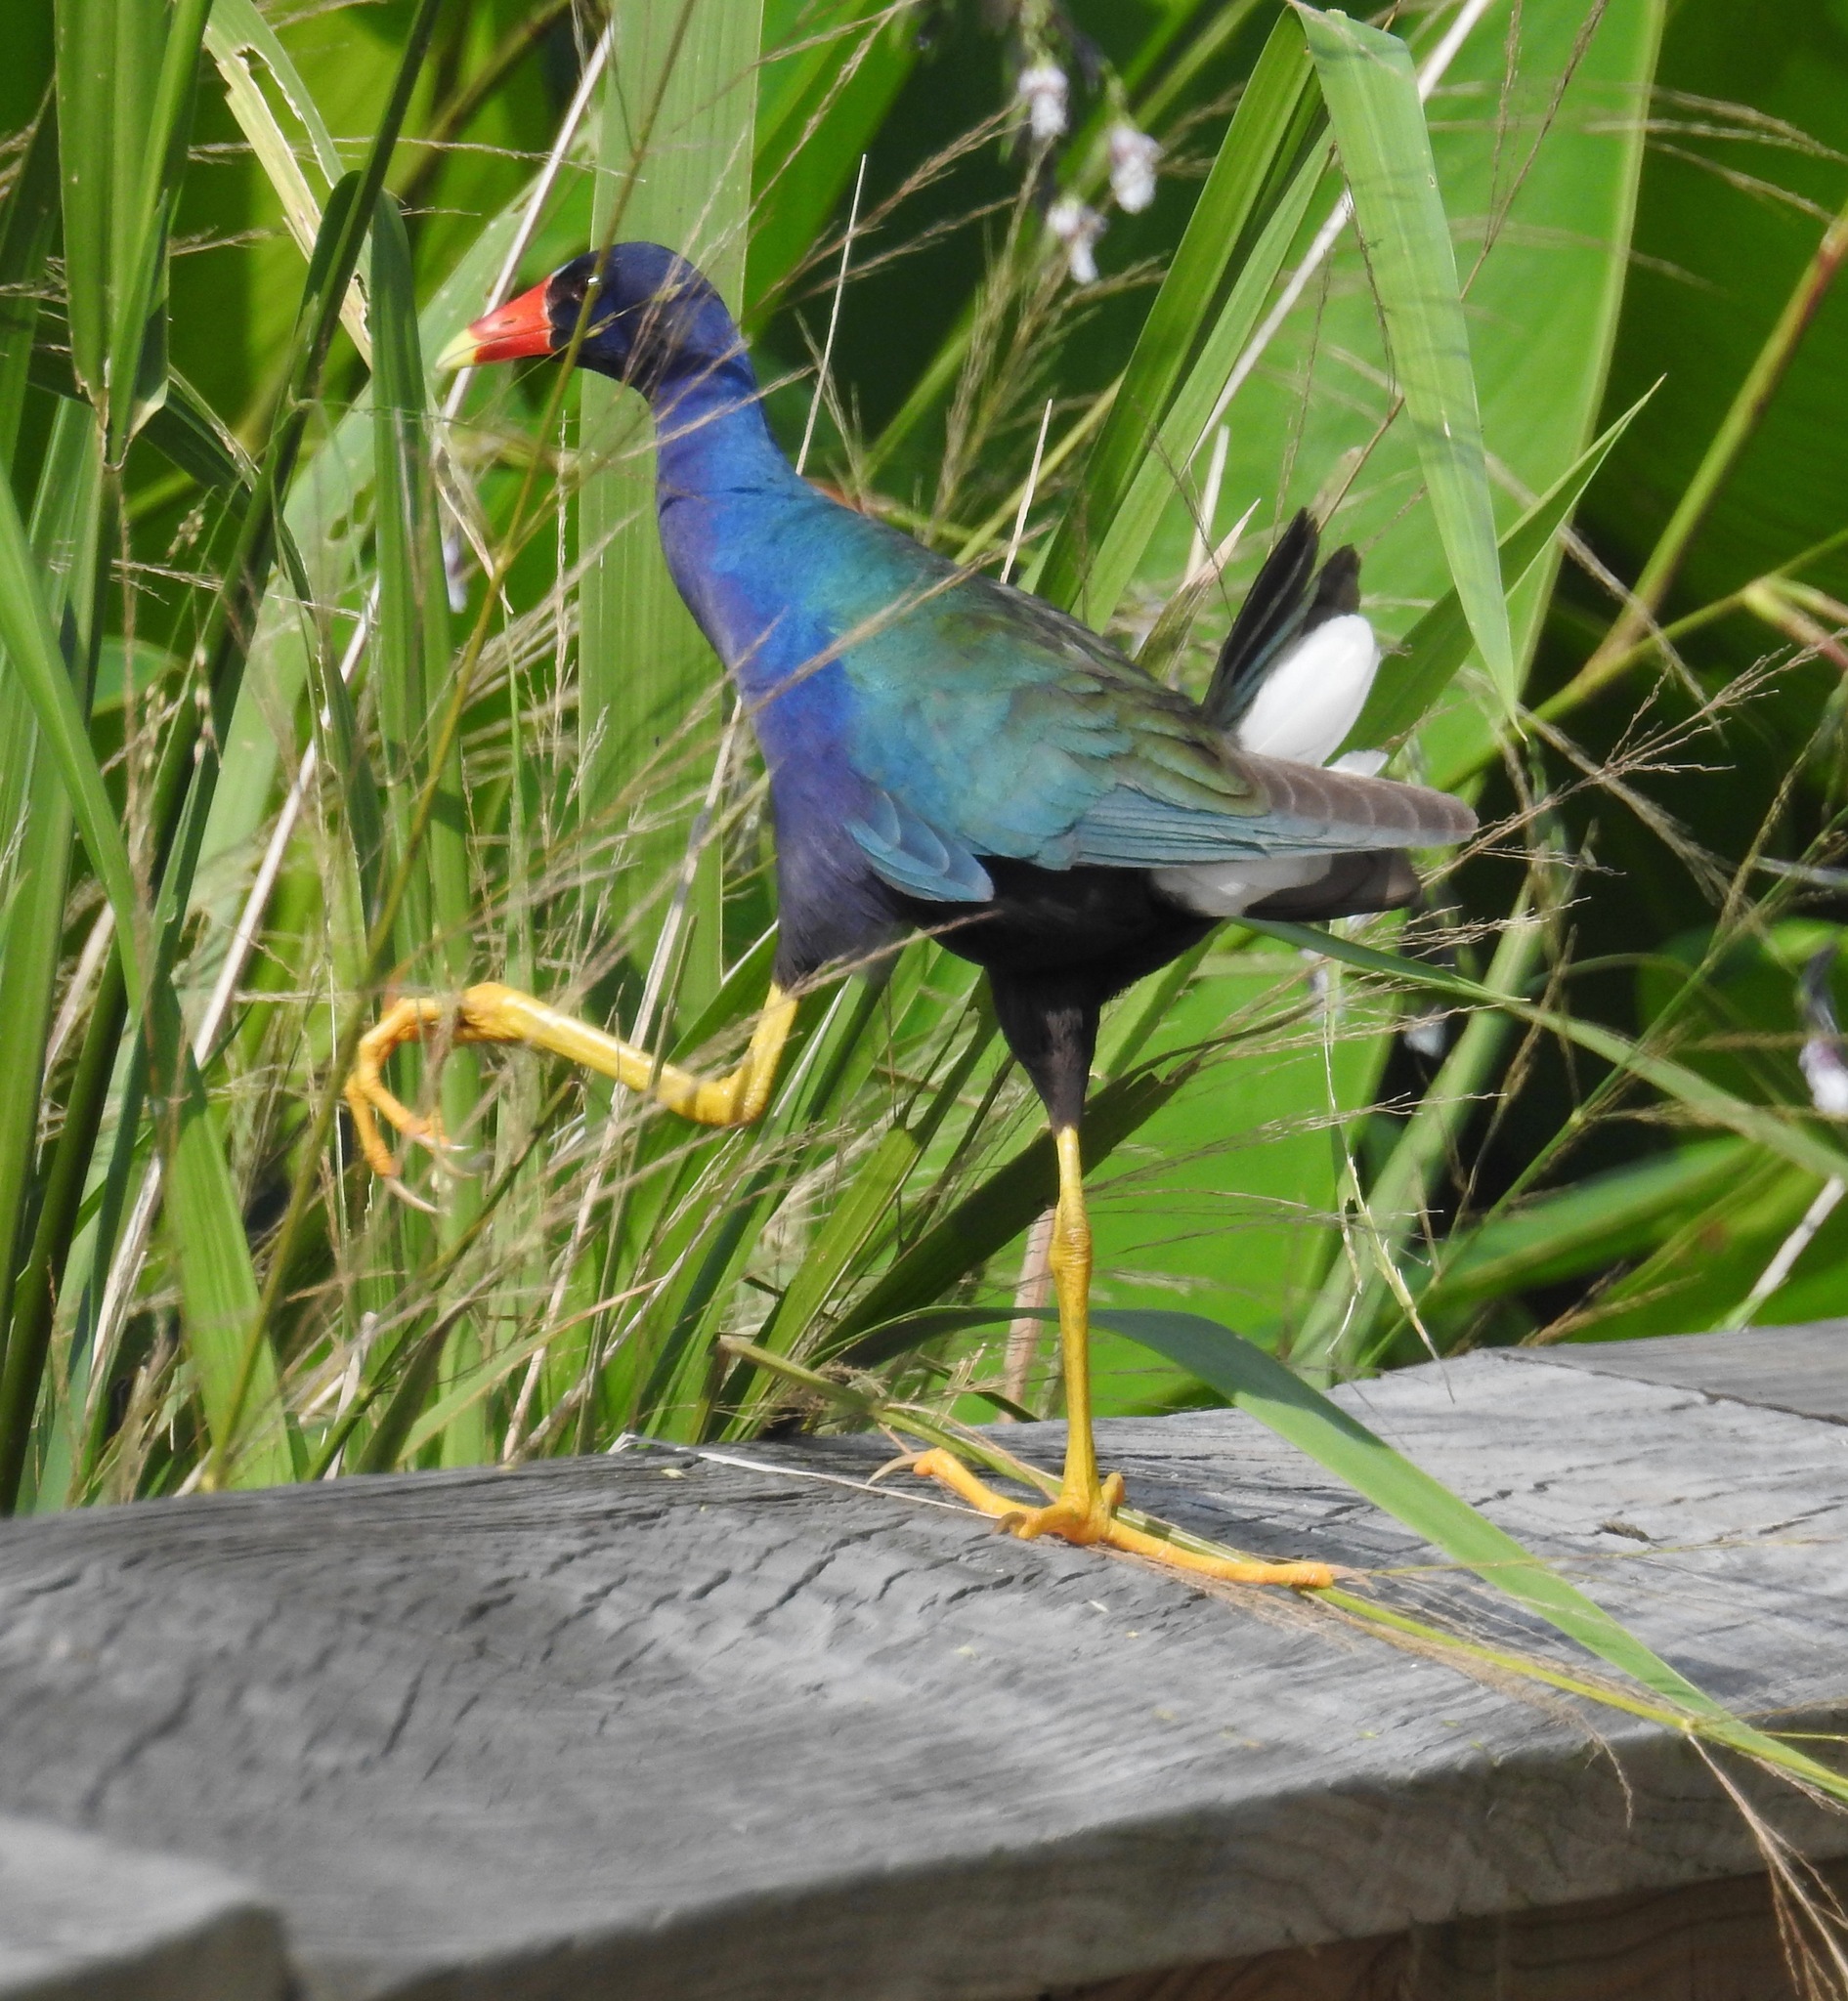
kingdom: Animalia
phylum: Chordata
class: Aves
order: Gruiformes
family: Rallidae
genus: Porphyrio
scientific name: Porphyrio martinica
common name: Purple gallinule
